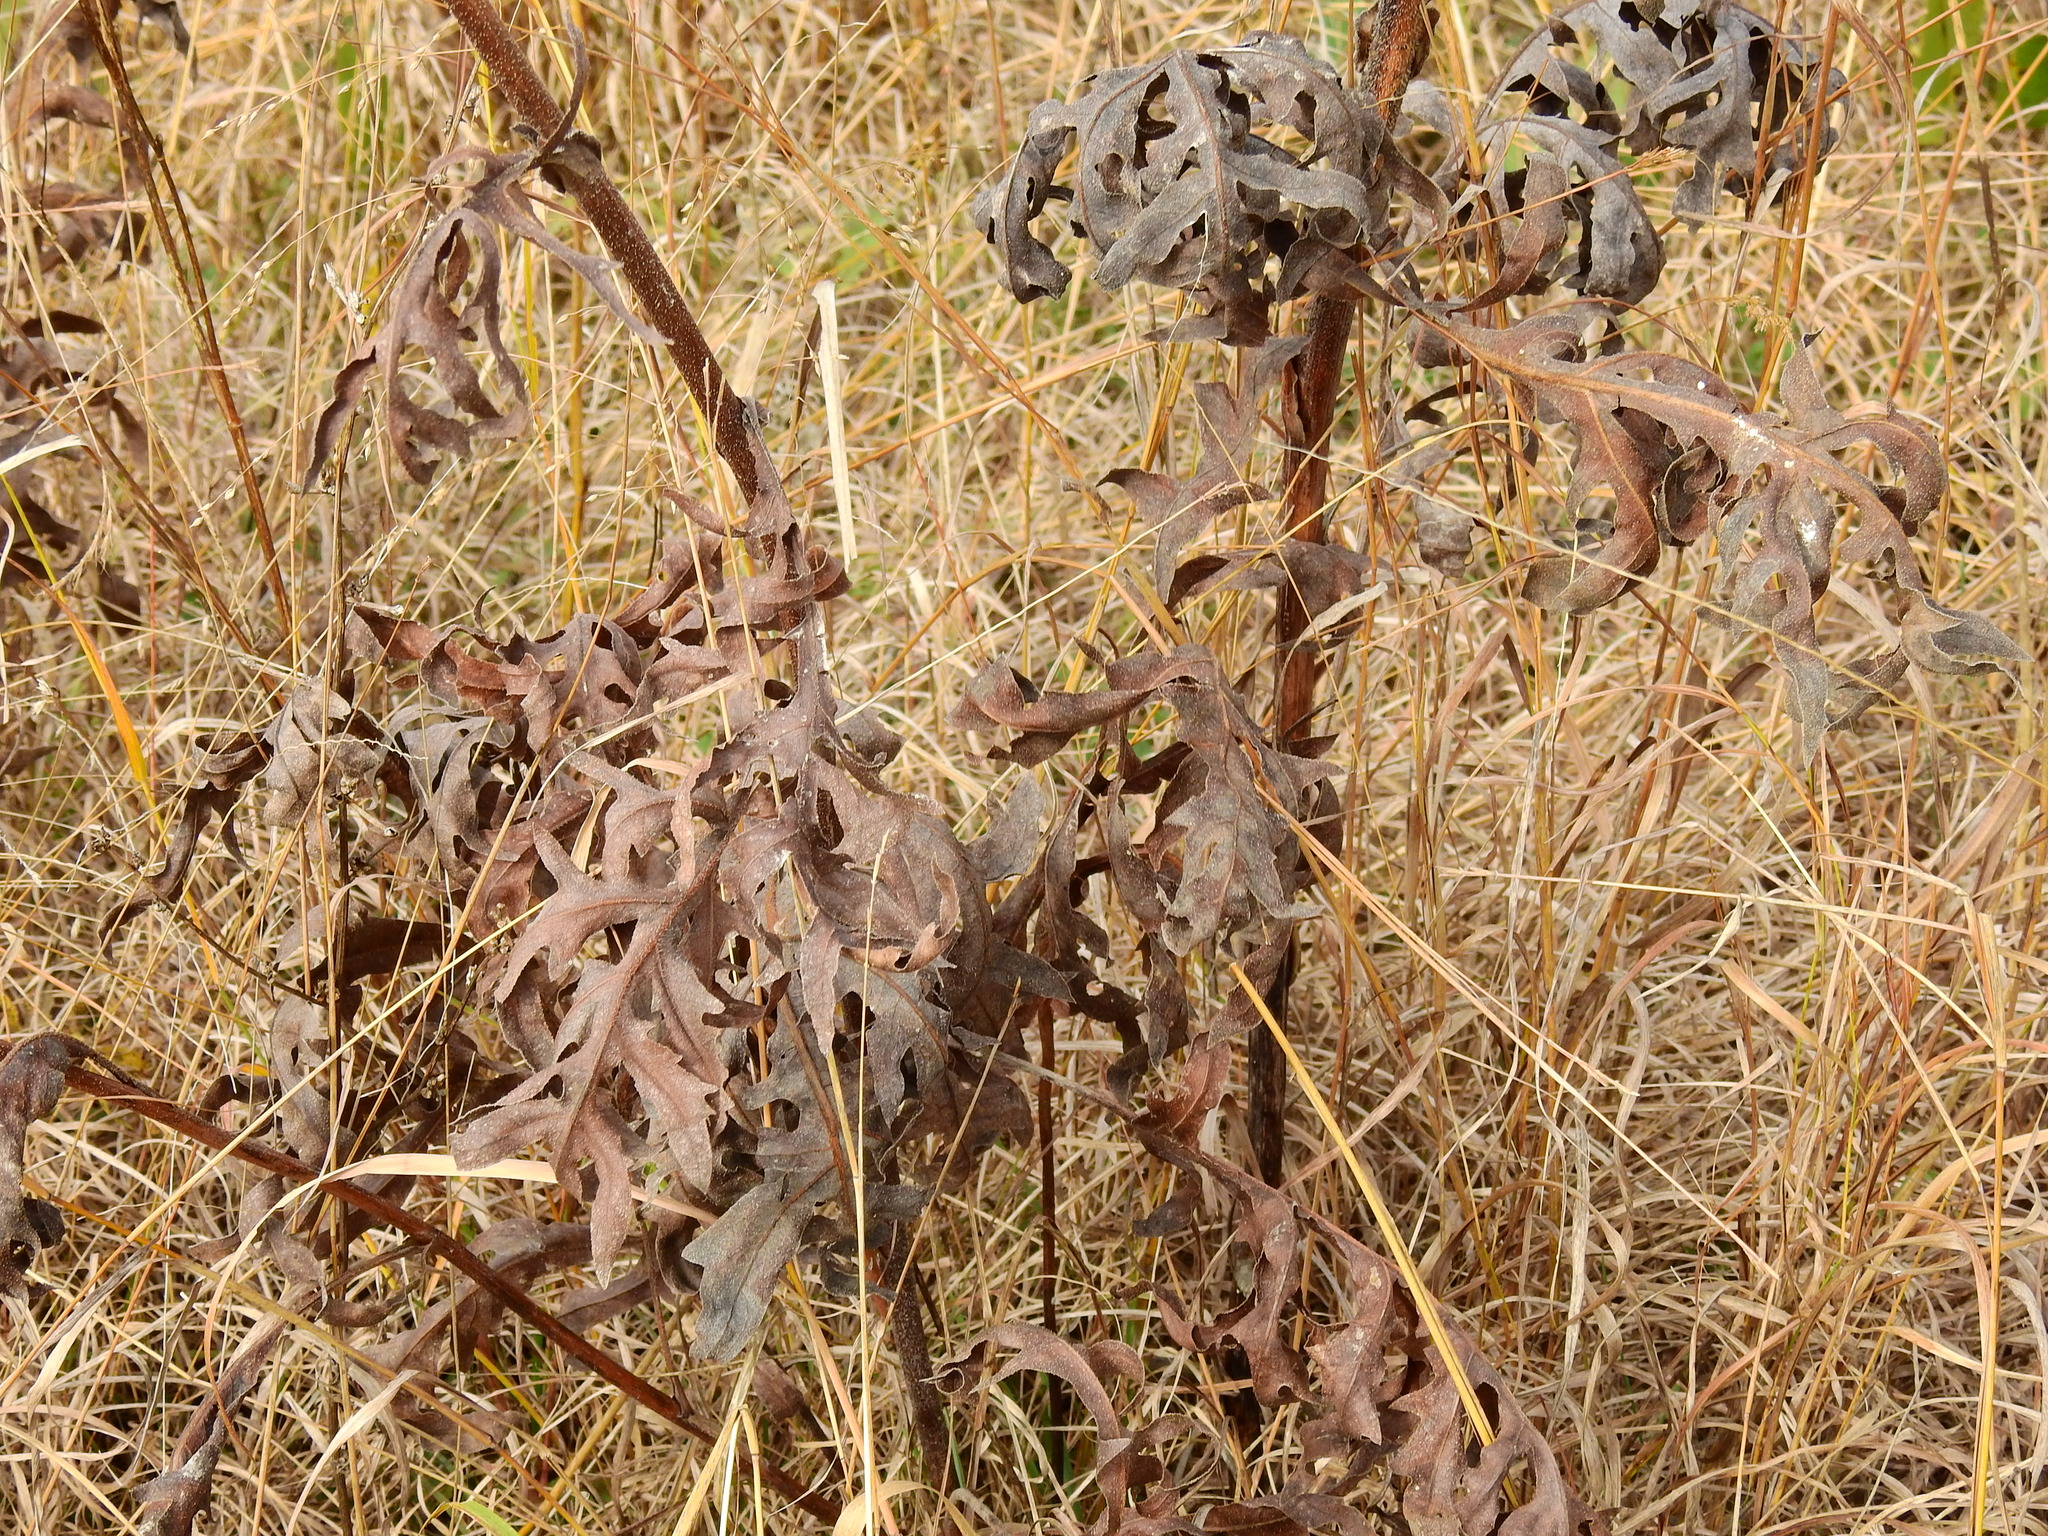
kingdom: Plantae
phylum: Tracheophyta
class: Magnoliopsida
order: Asterales
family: Asteraceae
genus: Silphium
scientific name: Silphium laciniatum
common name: Polarplant
